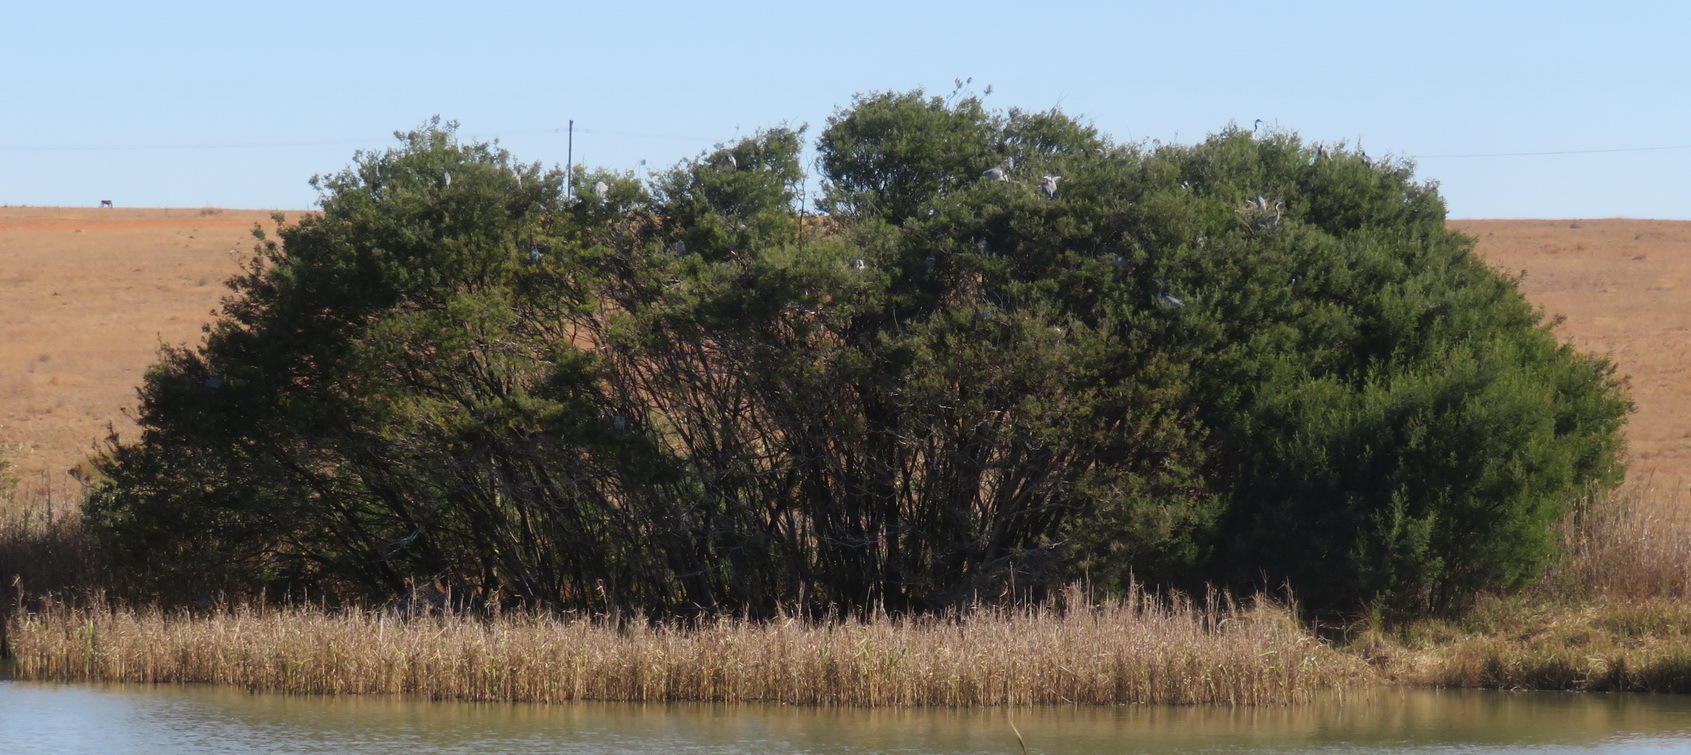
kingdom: Animalia
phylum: Chordata
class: Aves
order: Pelecaniformes
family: Ardeidae
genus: Ardea
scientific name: Ardea melanocephala
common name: Black-headed heron
